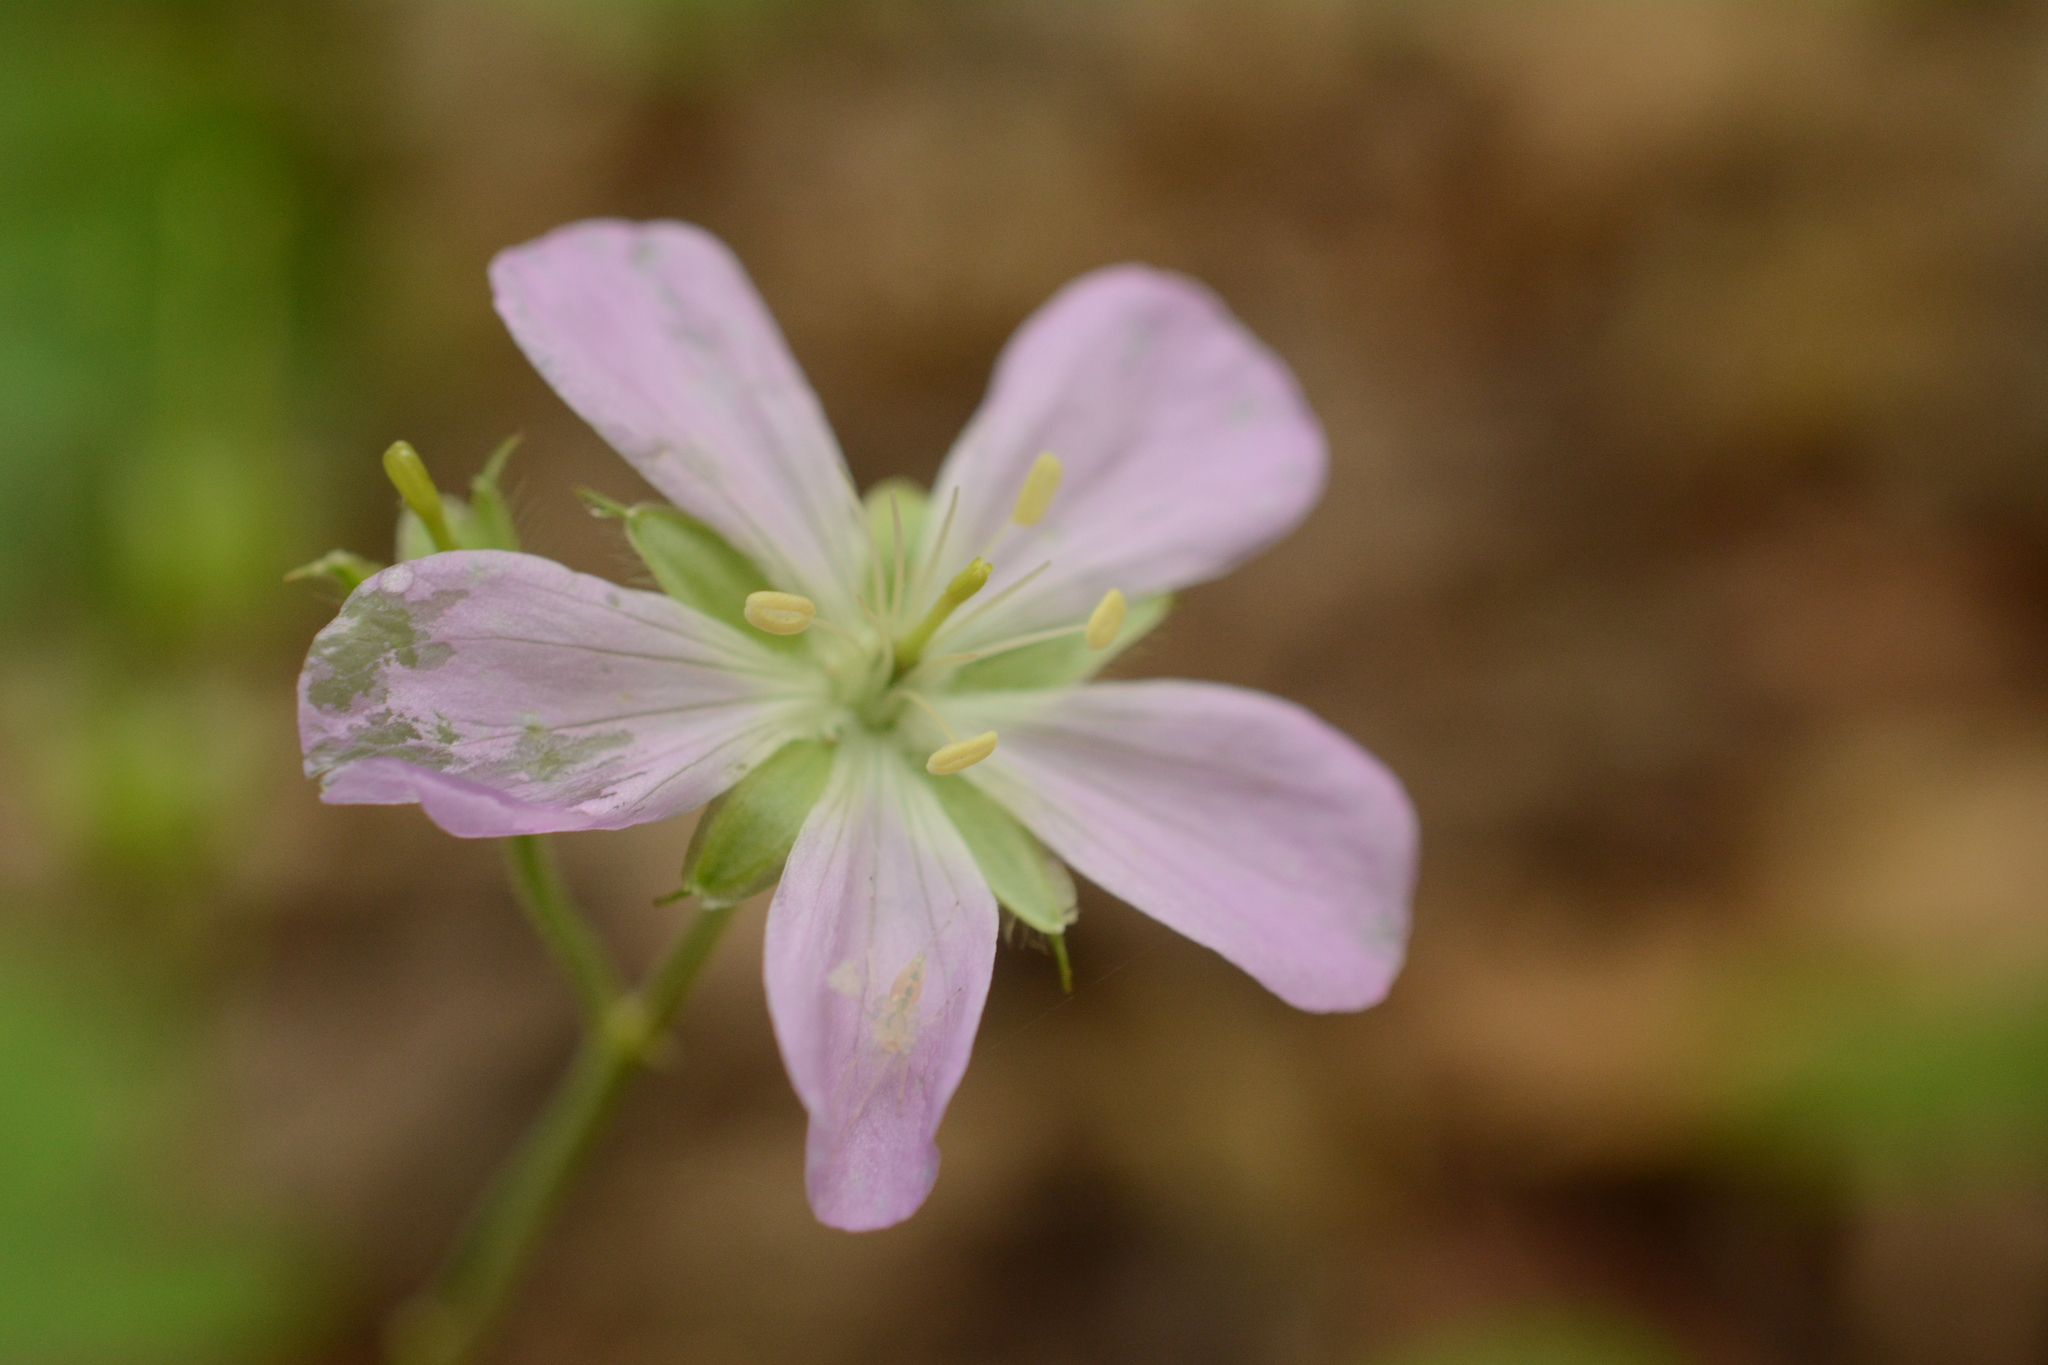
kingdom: Plantae
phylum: Tracheophyta
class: Magnoliopsida
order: Geraniales
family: Geraniaceae
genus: Geranium
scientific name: Geranium maculatum
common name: Spotted geranium
